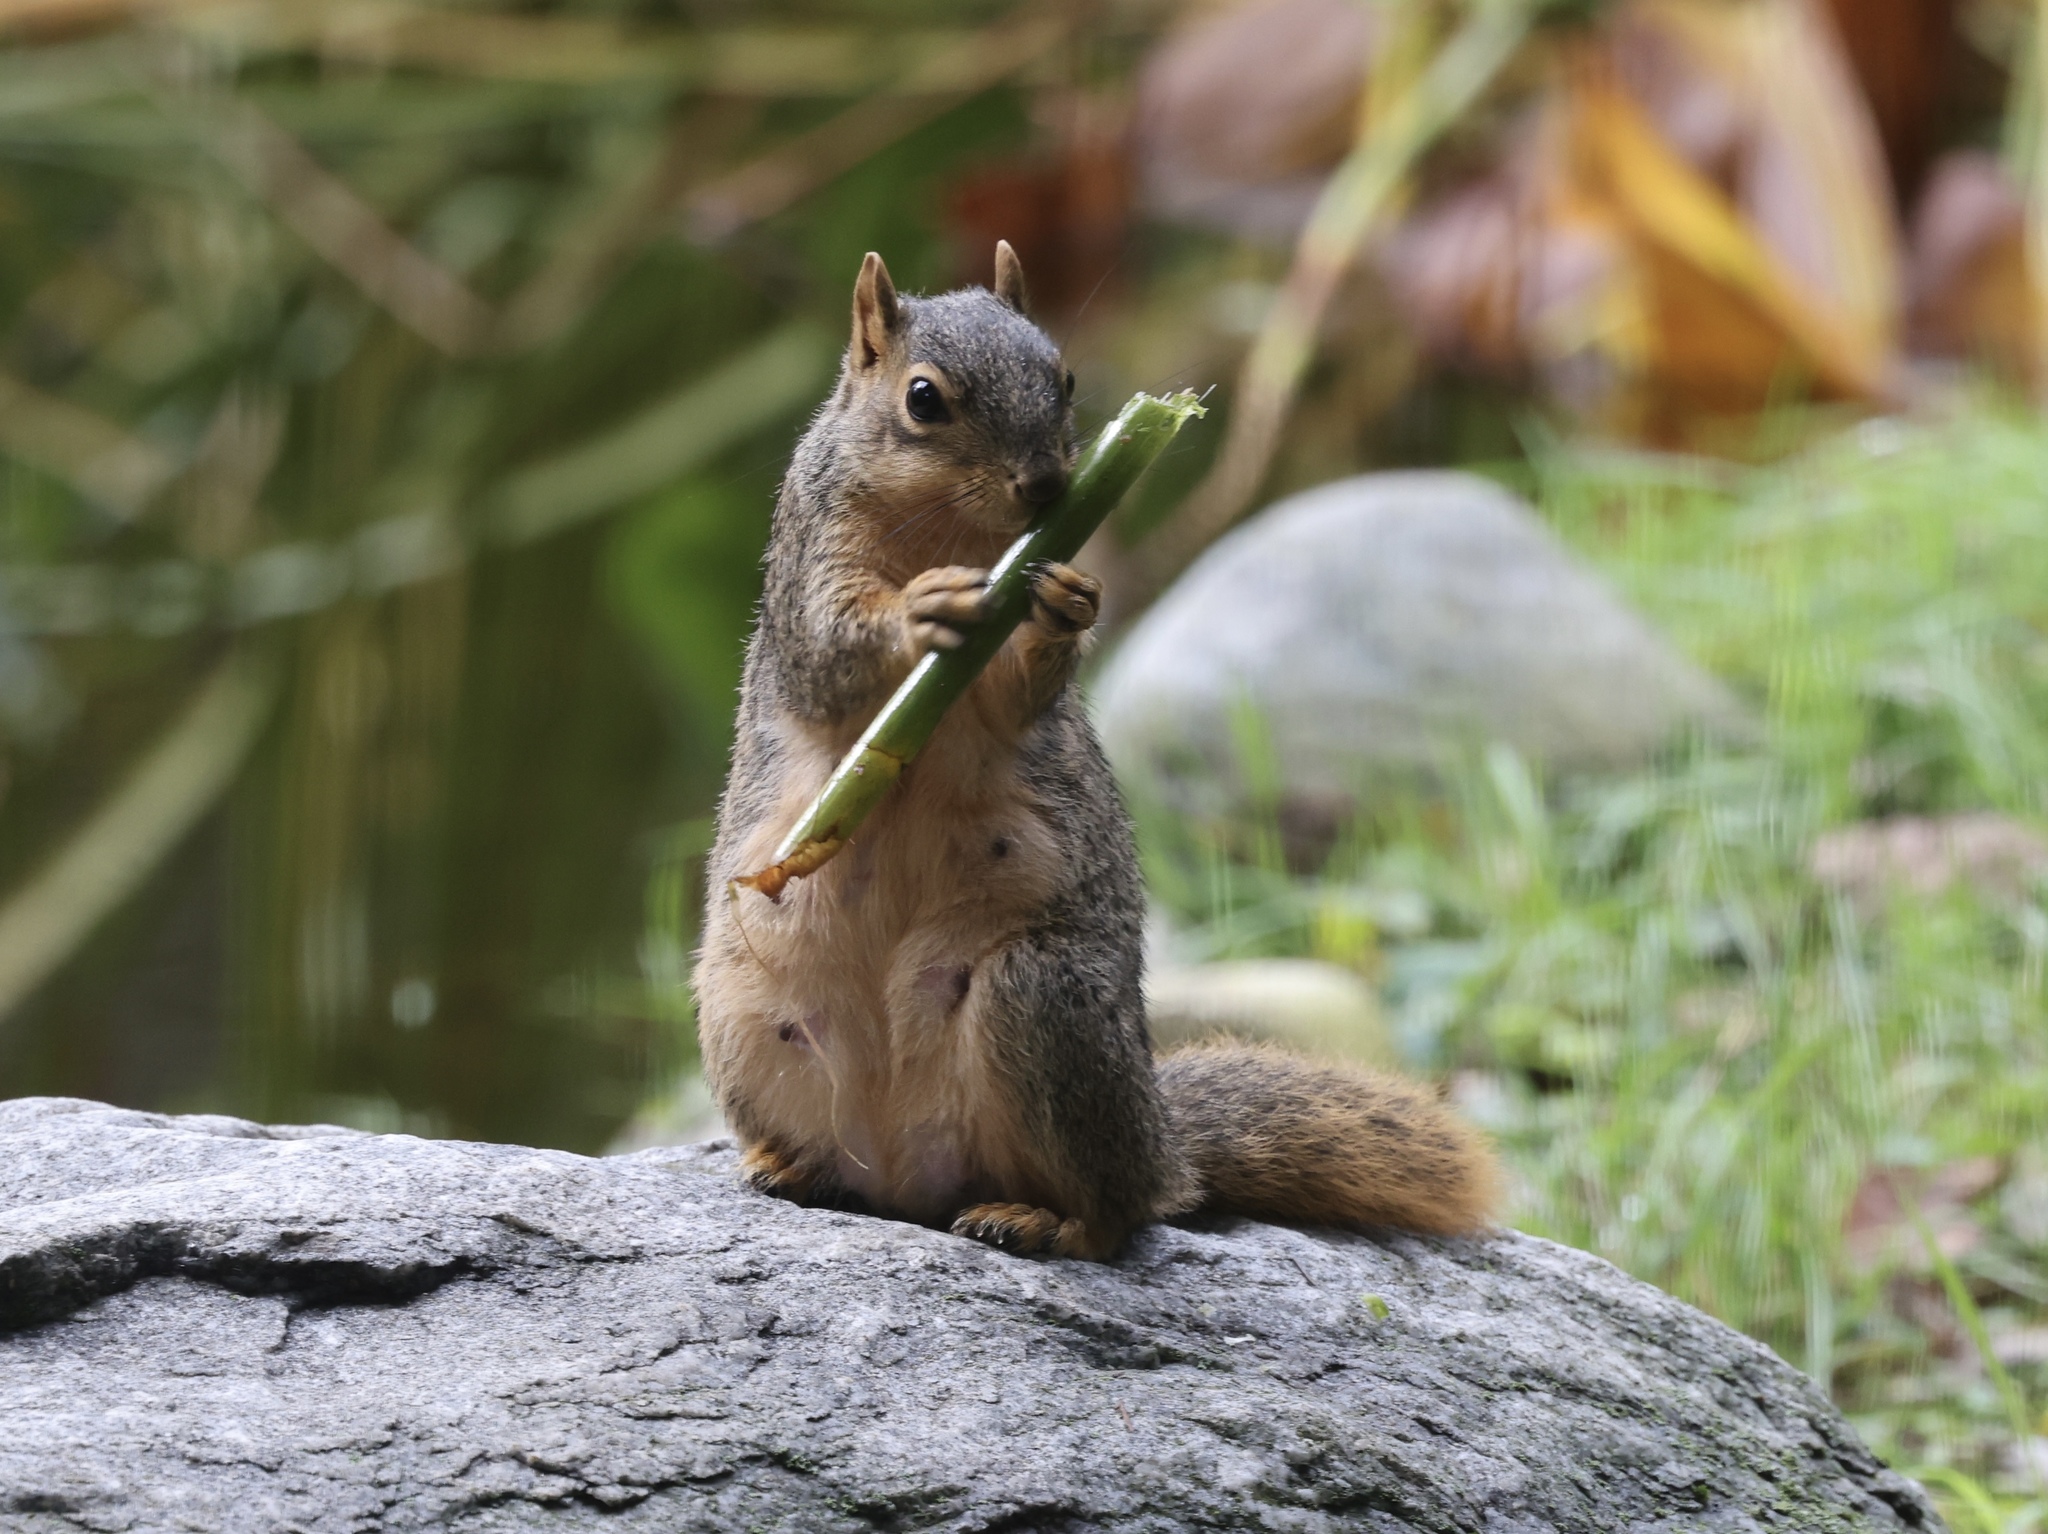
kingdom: Animalia
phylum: Chordata
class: Mammalia
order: Rodentia
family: Sciuridae
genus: Sciurus
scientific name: Sciurus niger
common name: Fox squirrel
